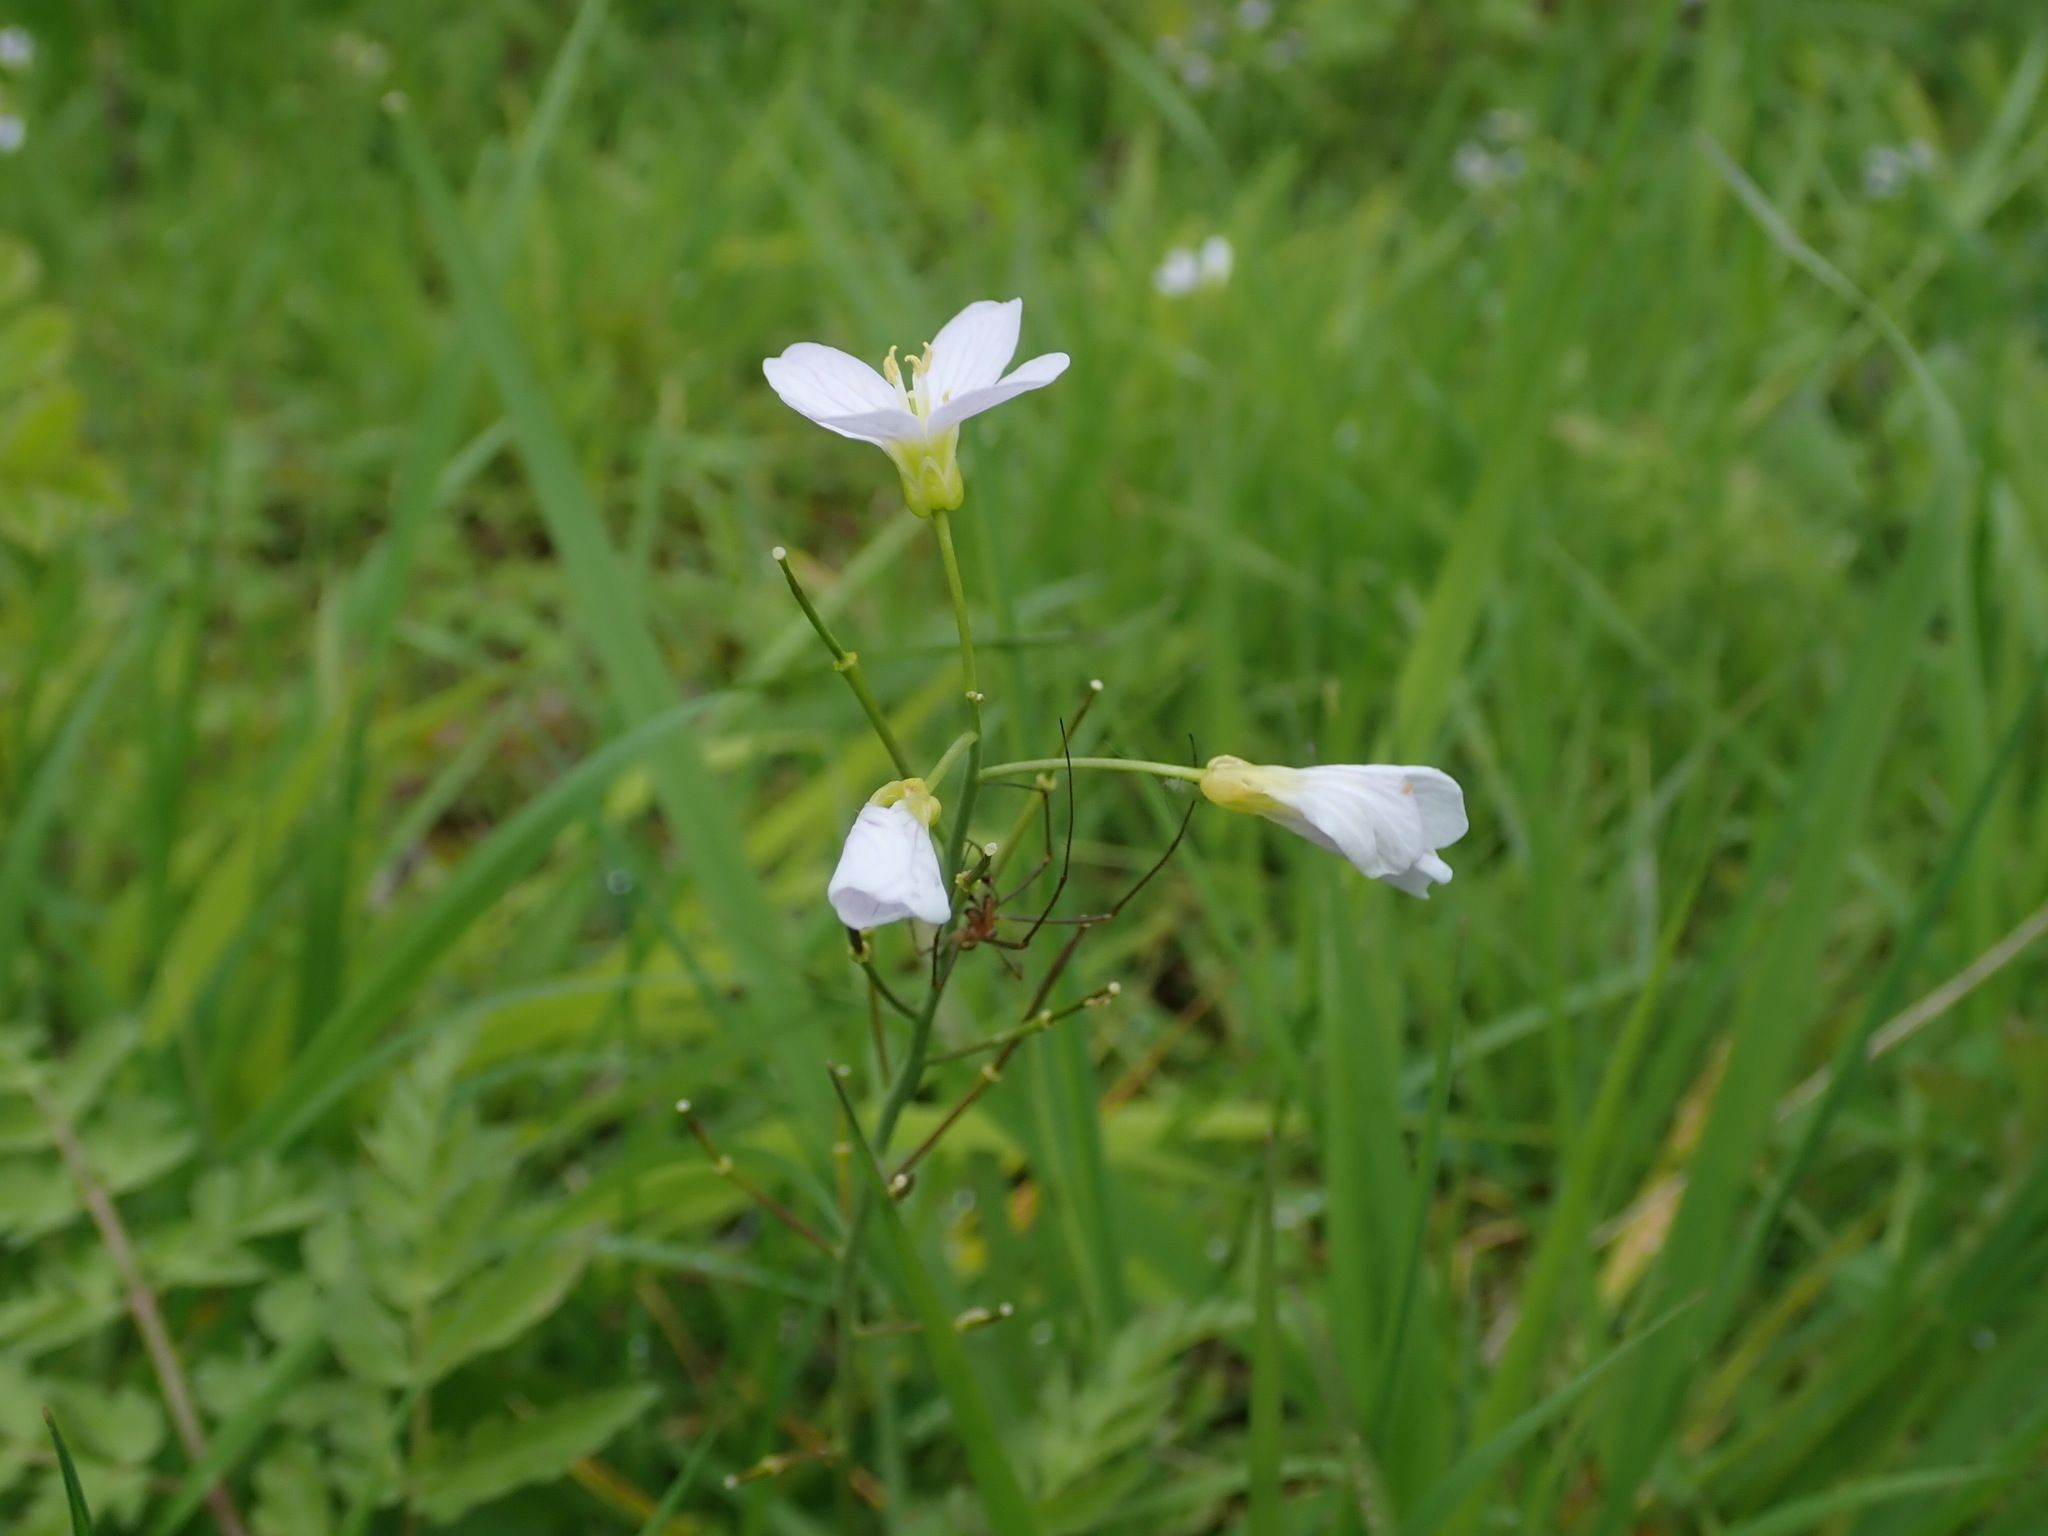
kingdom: Plantae
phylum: Tracheophyta
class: Magnoliopsida
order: Brassicales
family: Brassicaceae
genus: Cardamine
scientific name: Cardamine pratensis
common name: Cuckoo flower
